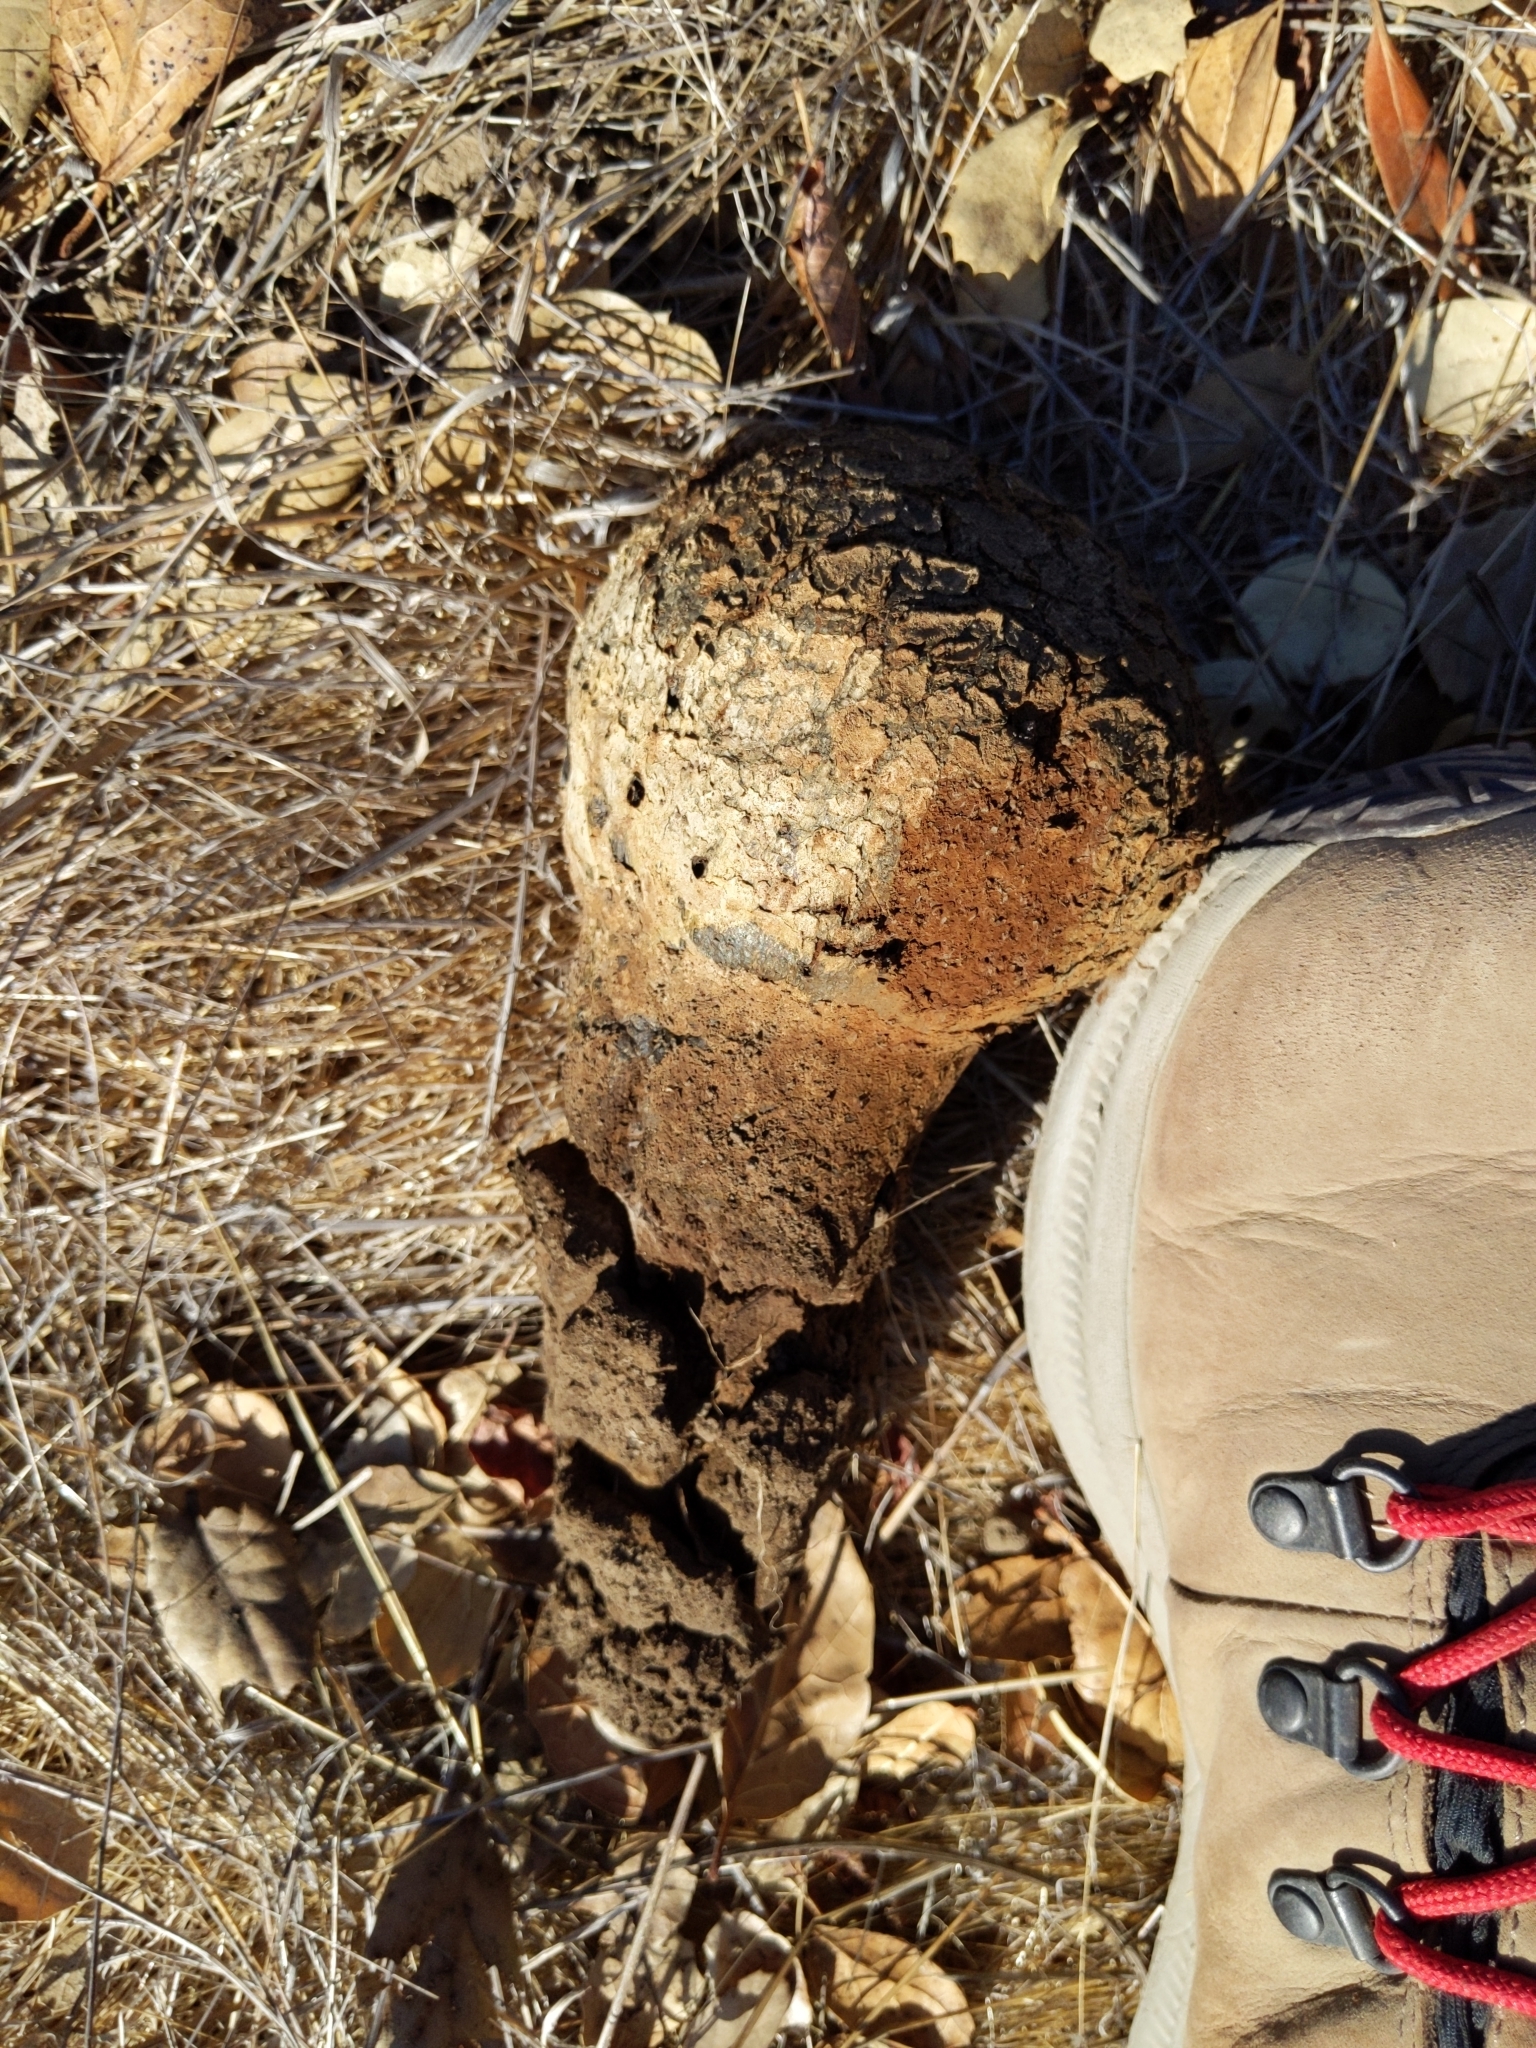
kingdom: Fungi
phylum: Basidiomycota
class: Agaricomycetes
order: Boletales
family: Sclerodermataceae
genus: Pisolithus
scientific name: Pisolithus tinctorius
